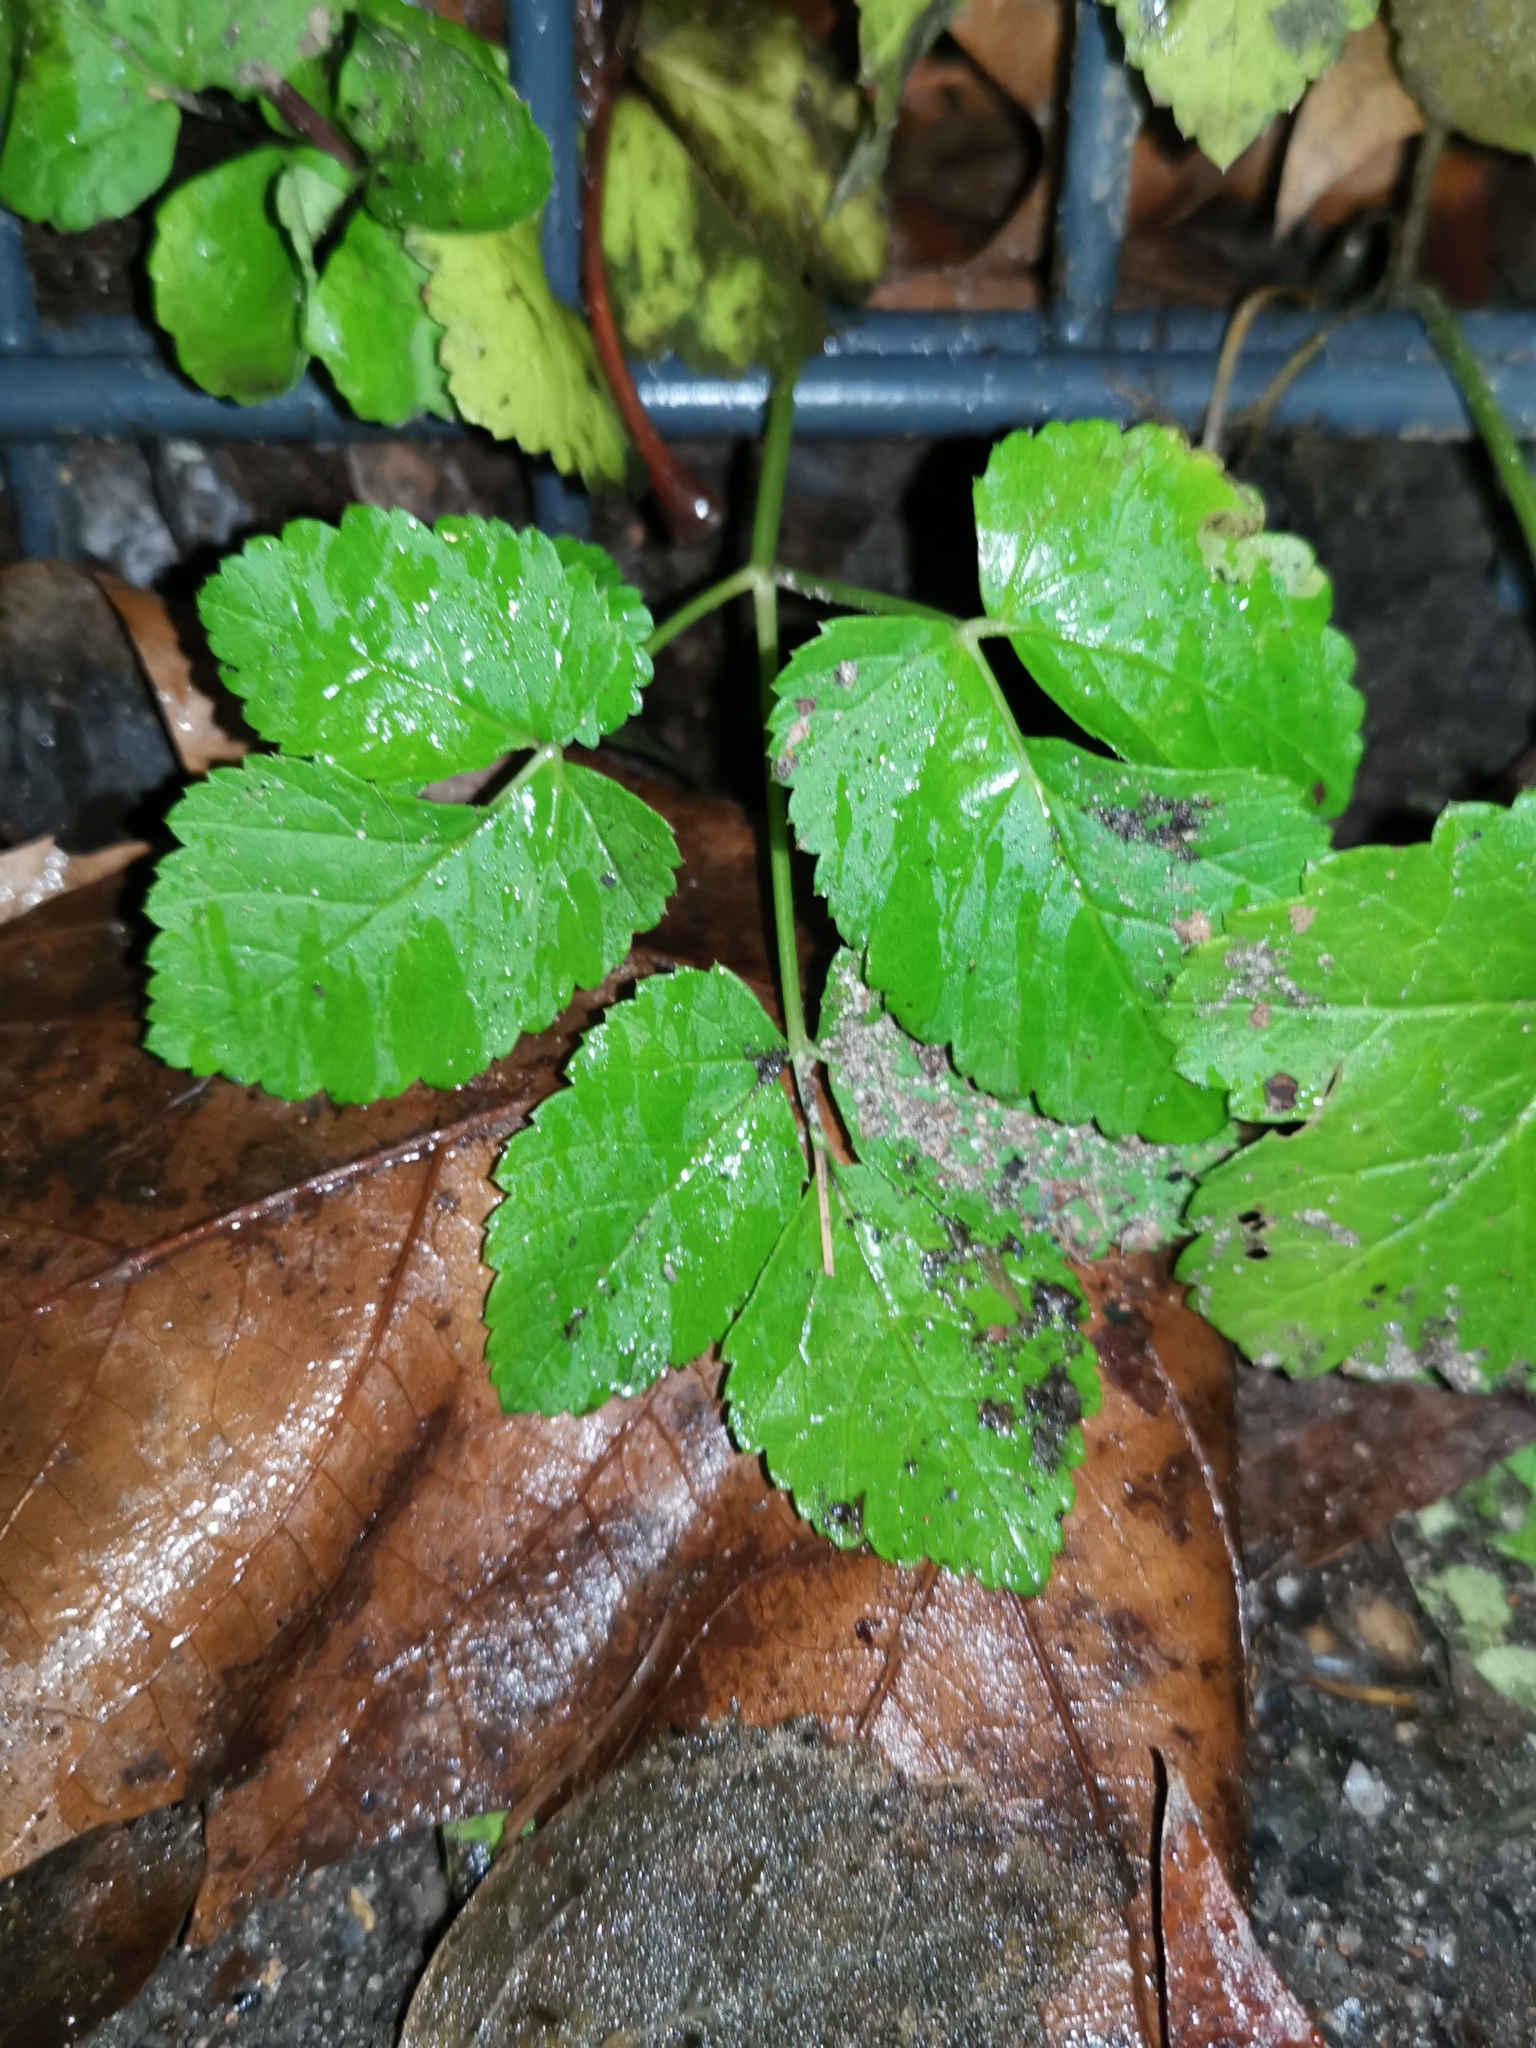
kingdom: Plantae
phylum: Tracheophyta
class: Magnoliopsida
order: Apiales
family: Apiaceae
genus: Aegopodium
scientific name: Aegopodium podagraria
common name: Ground-elder
